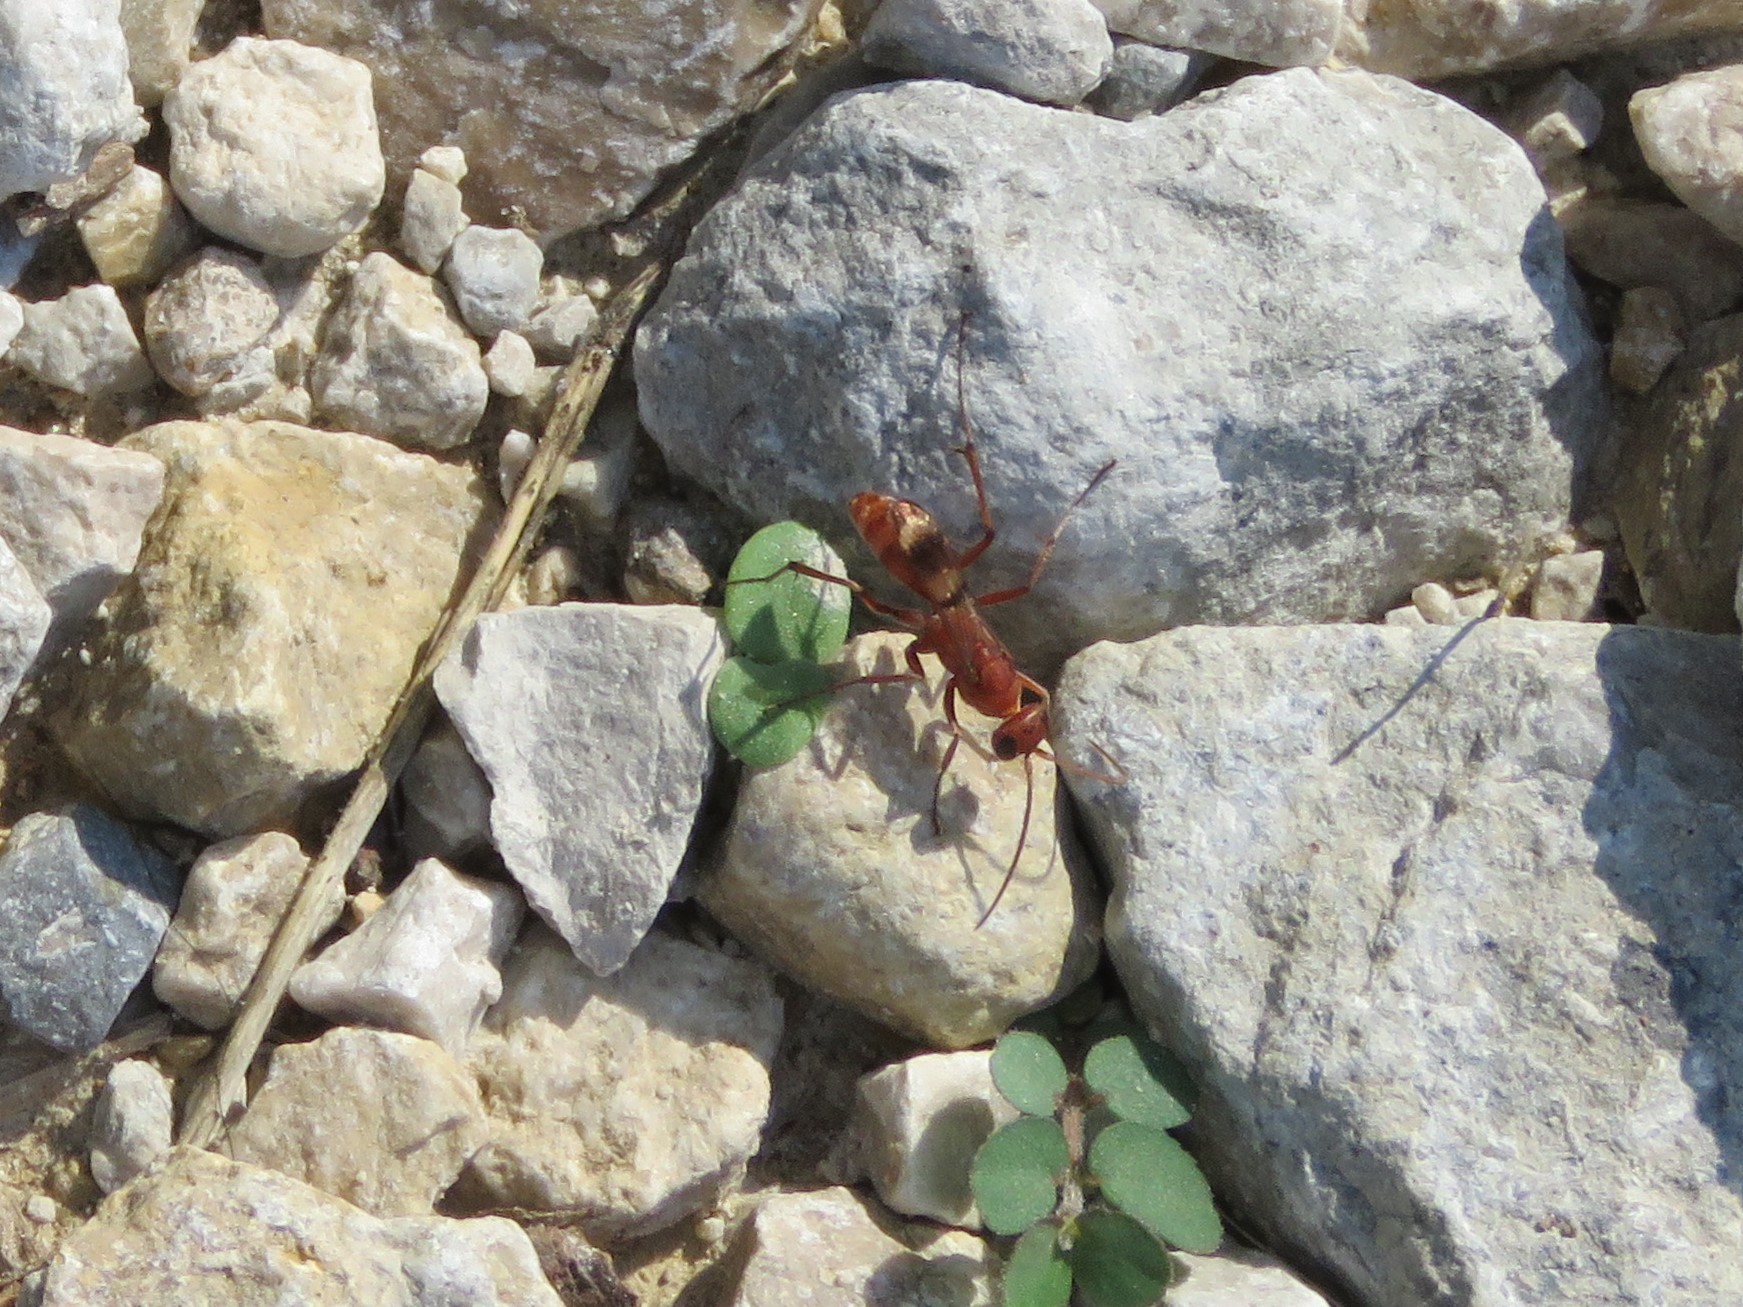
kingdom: Animalia
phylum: Arthropoda
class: Insecta
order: Hymenoptera
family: Pompilidae
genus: Ageniella
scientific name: Ageniella accepta
